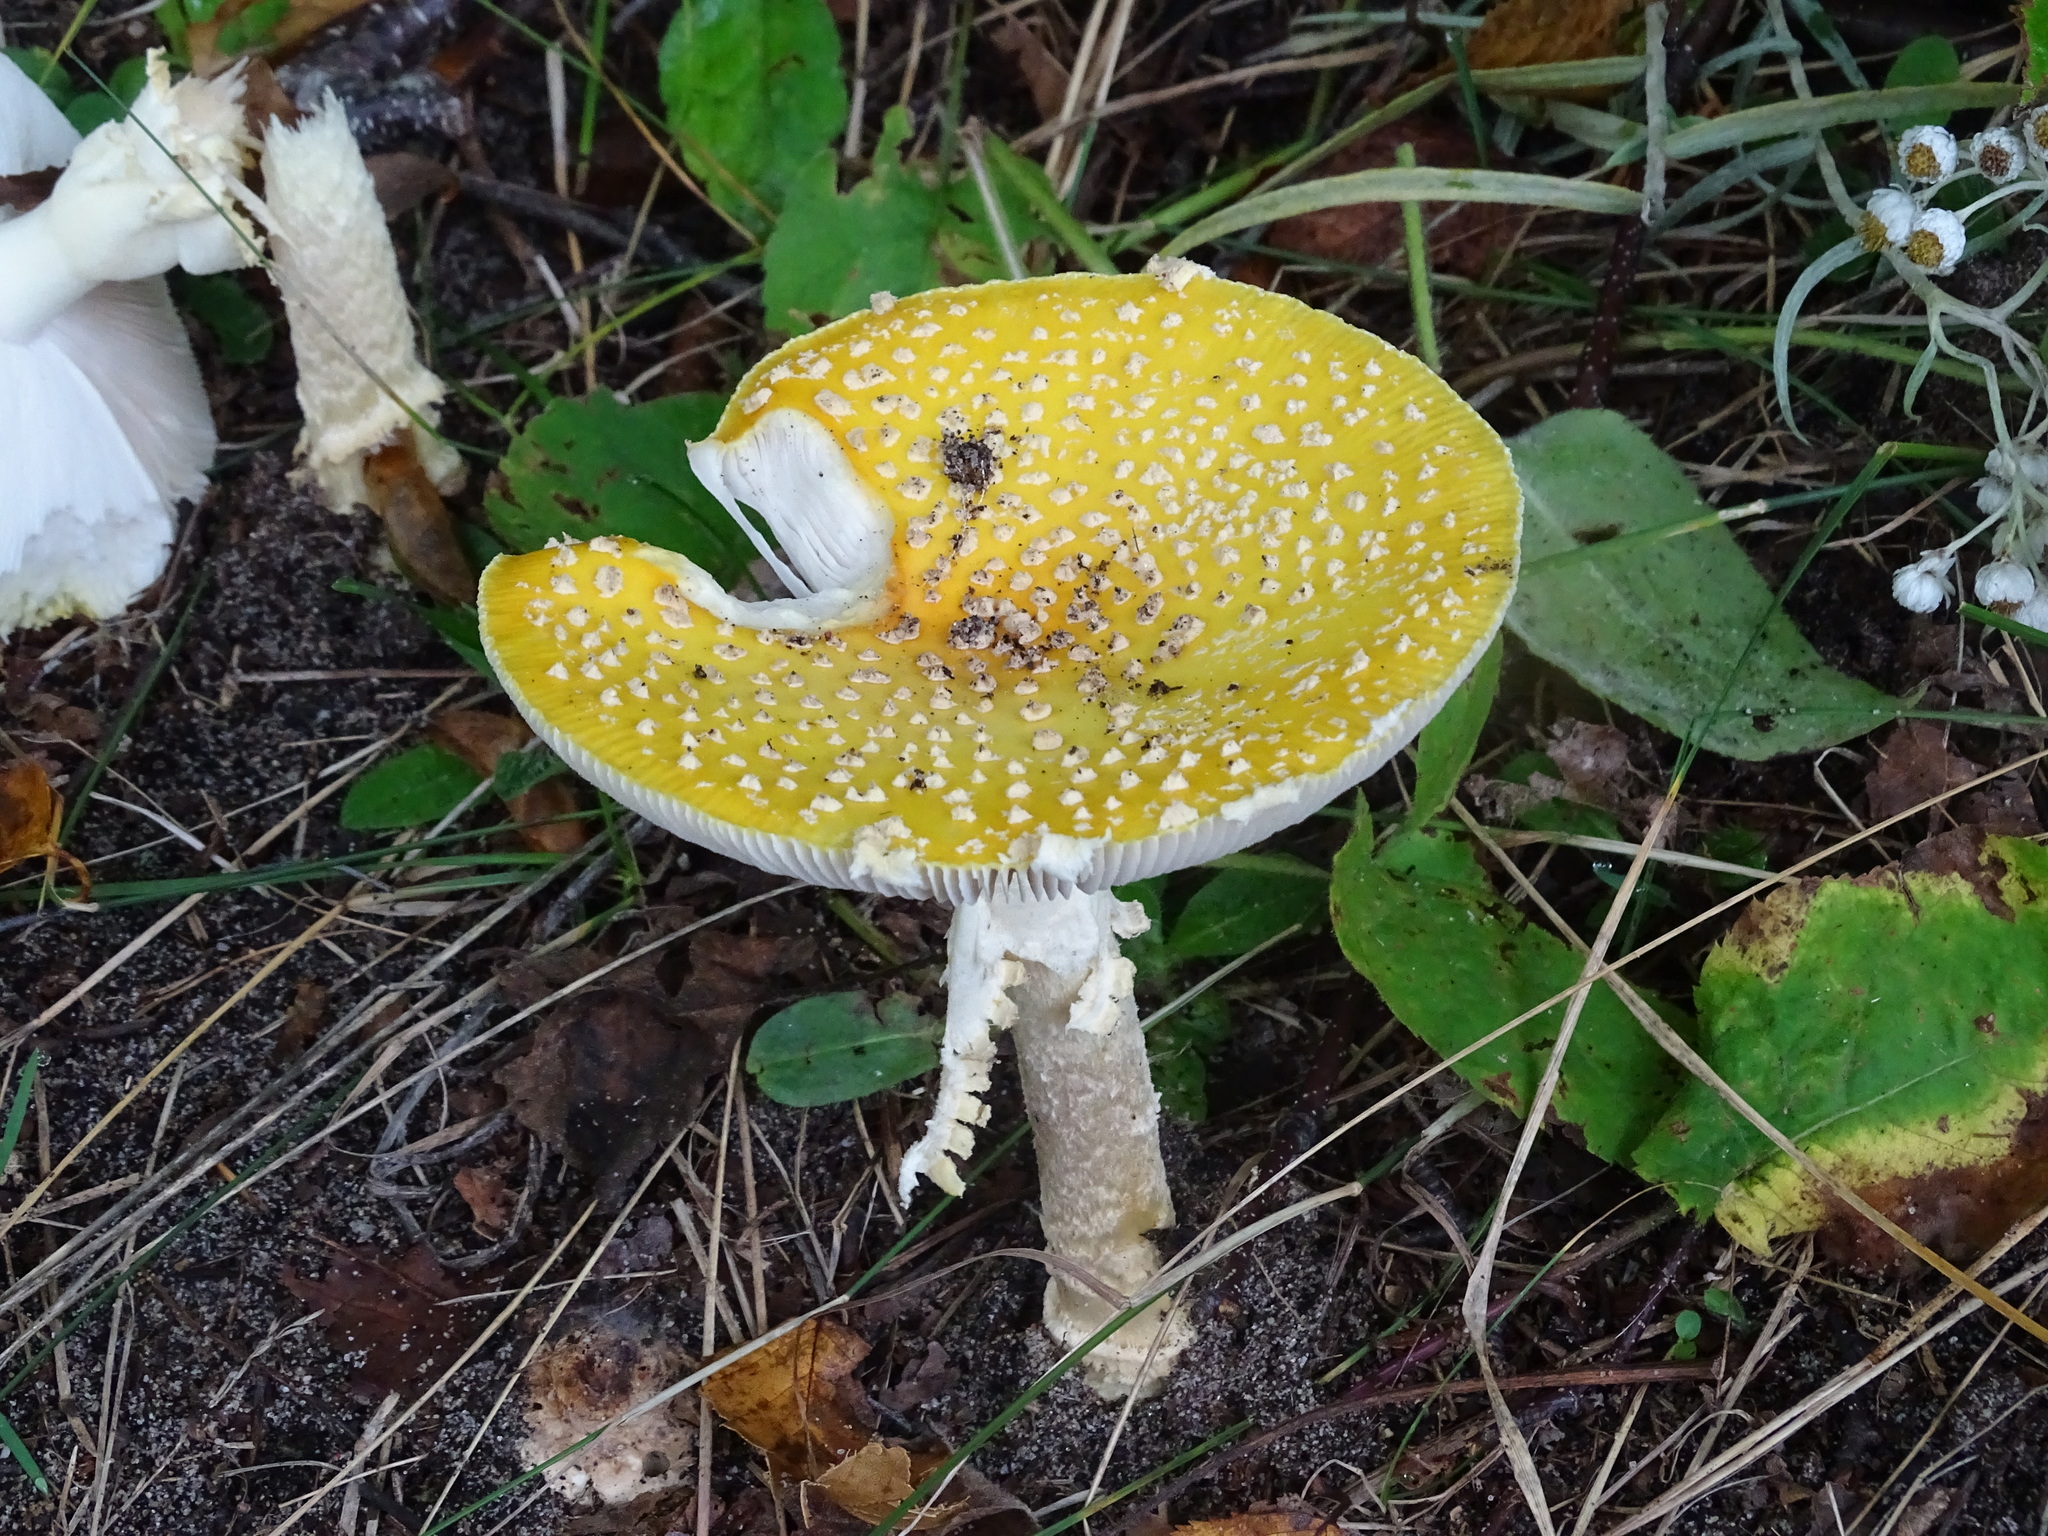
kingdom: Fungi
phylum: Basidiomycota
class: Agaricomycetes
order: Agaricales
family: Amanitaceae
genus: Amanita
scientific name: Amanita muscaria
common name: Fly agaric
